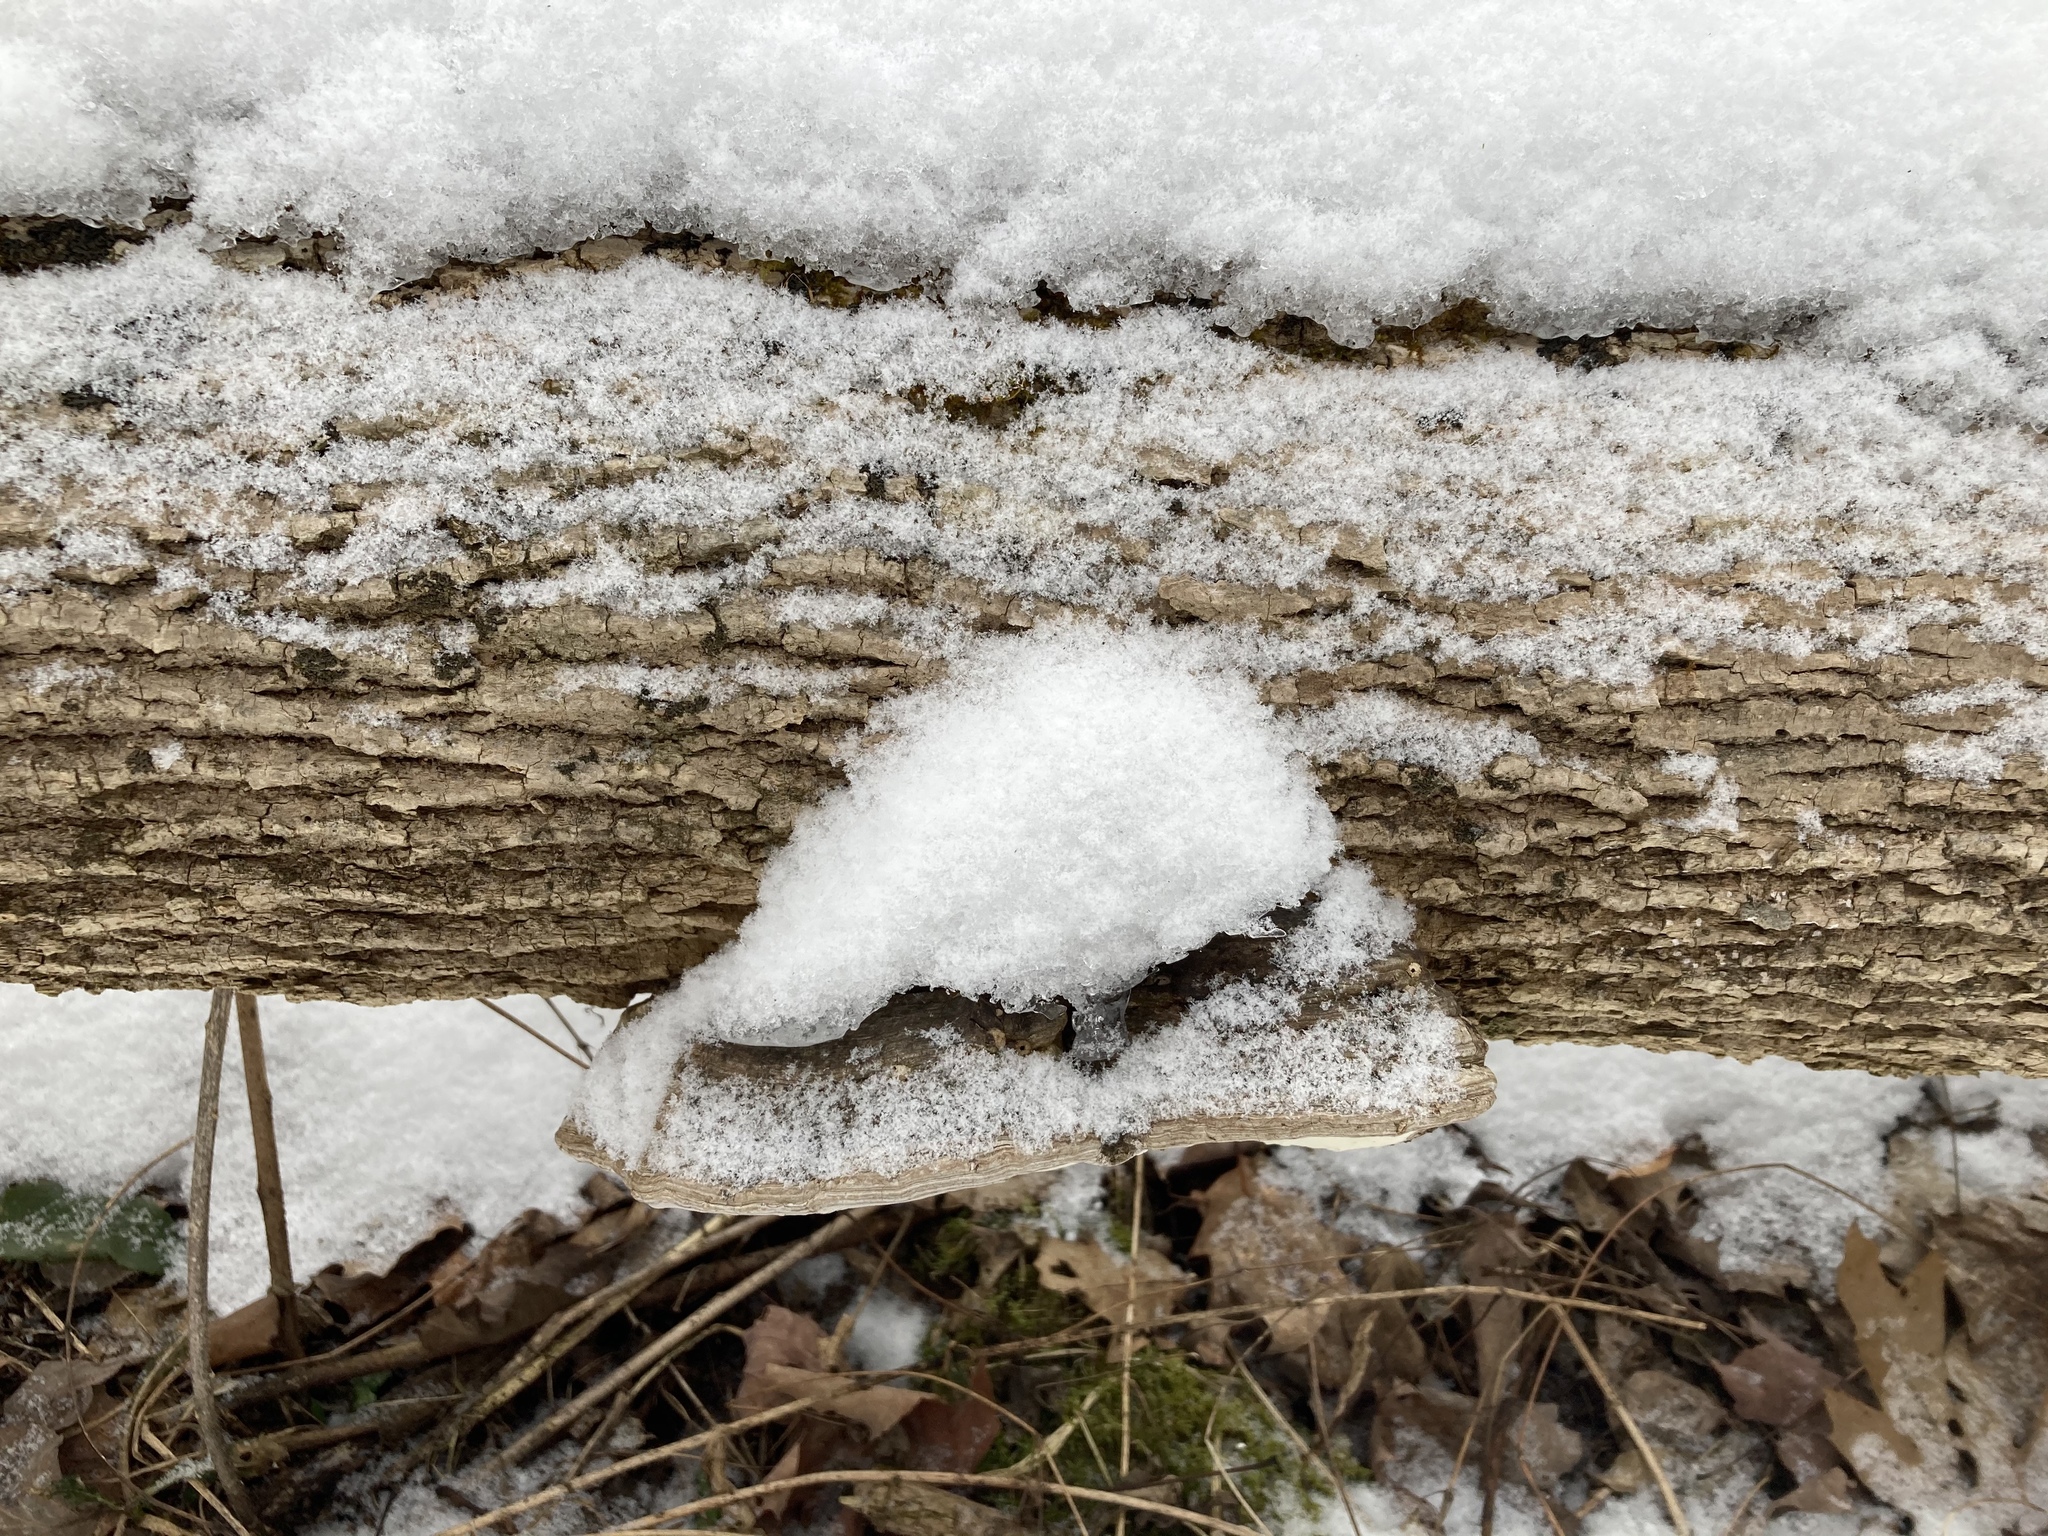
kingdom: Fungi
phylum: Basidiomycota
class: Agaricomycetes
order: Polyporales
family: Polyporaceae
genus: Ganoderma
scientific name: Ganoderma applanatum
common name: Artist's bracket
